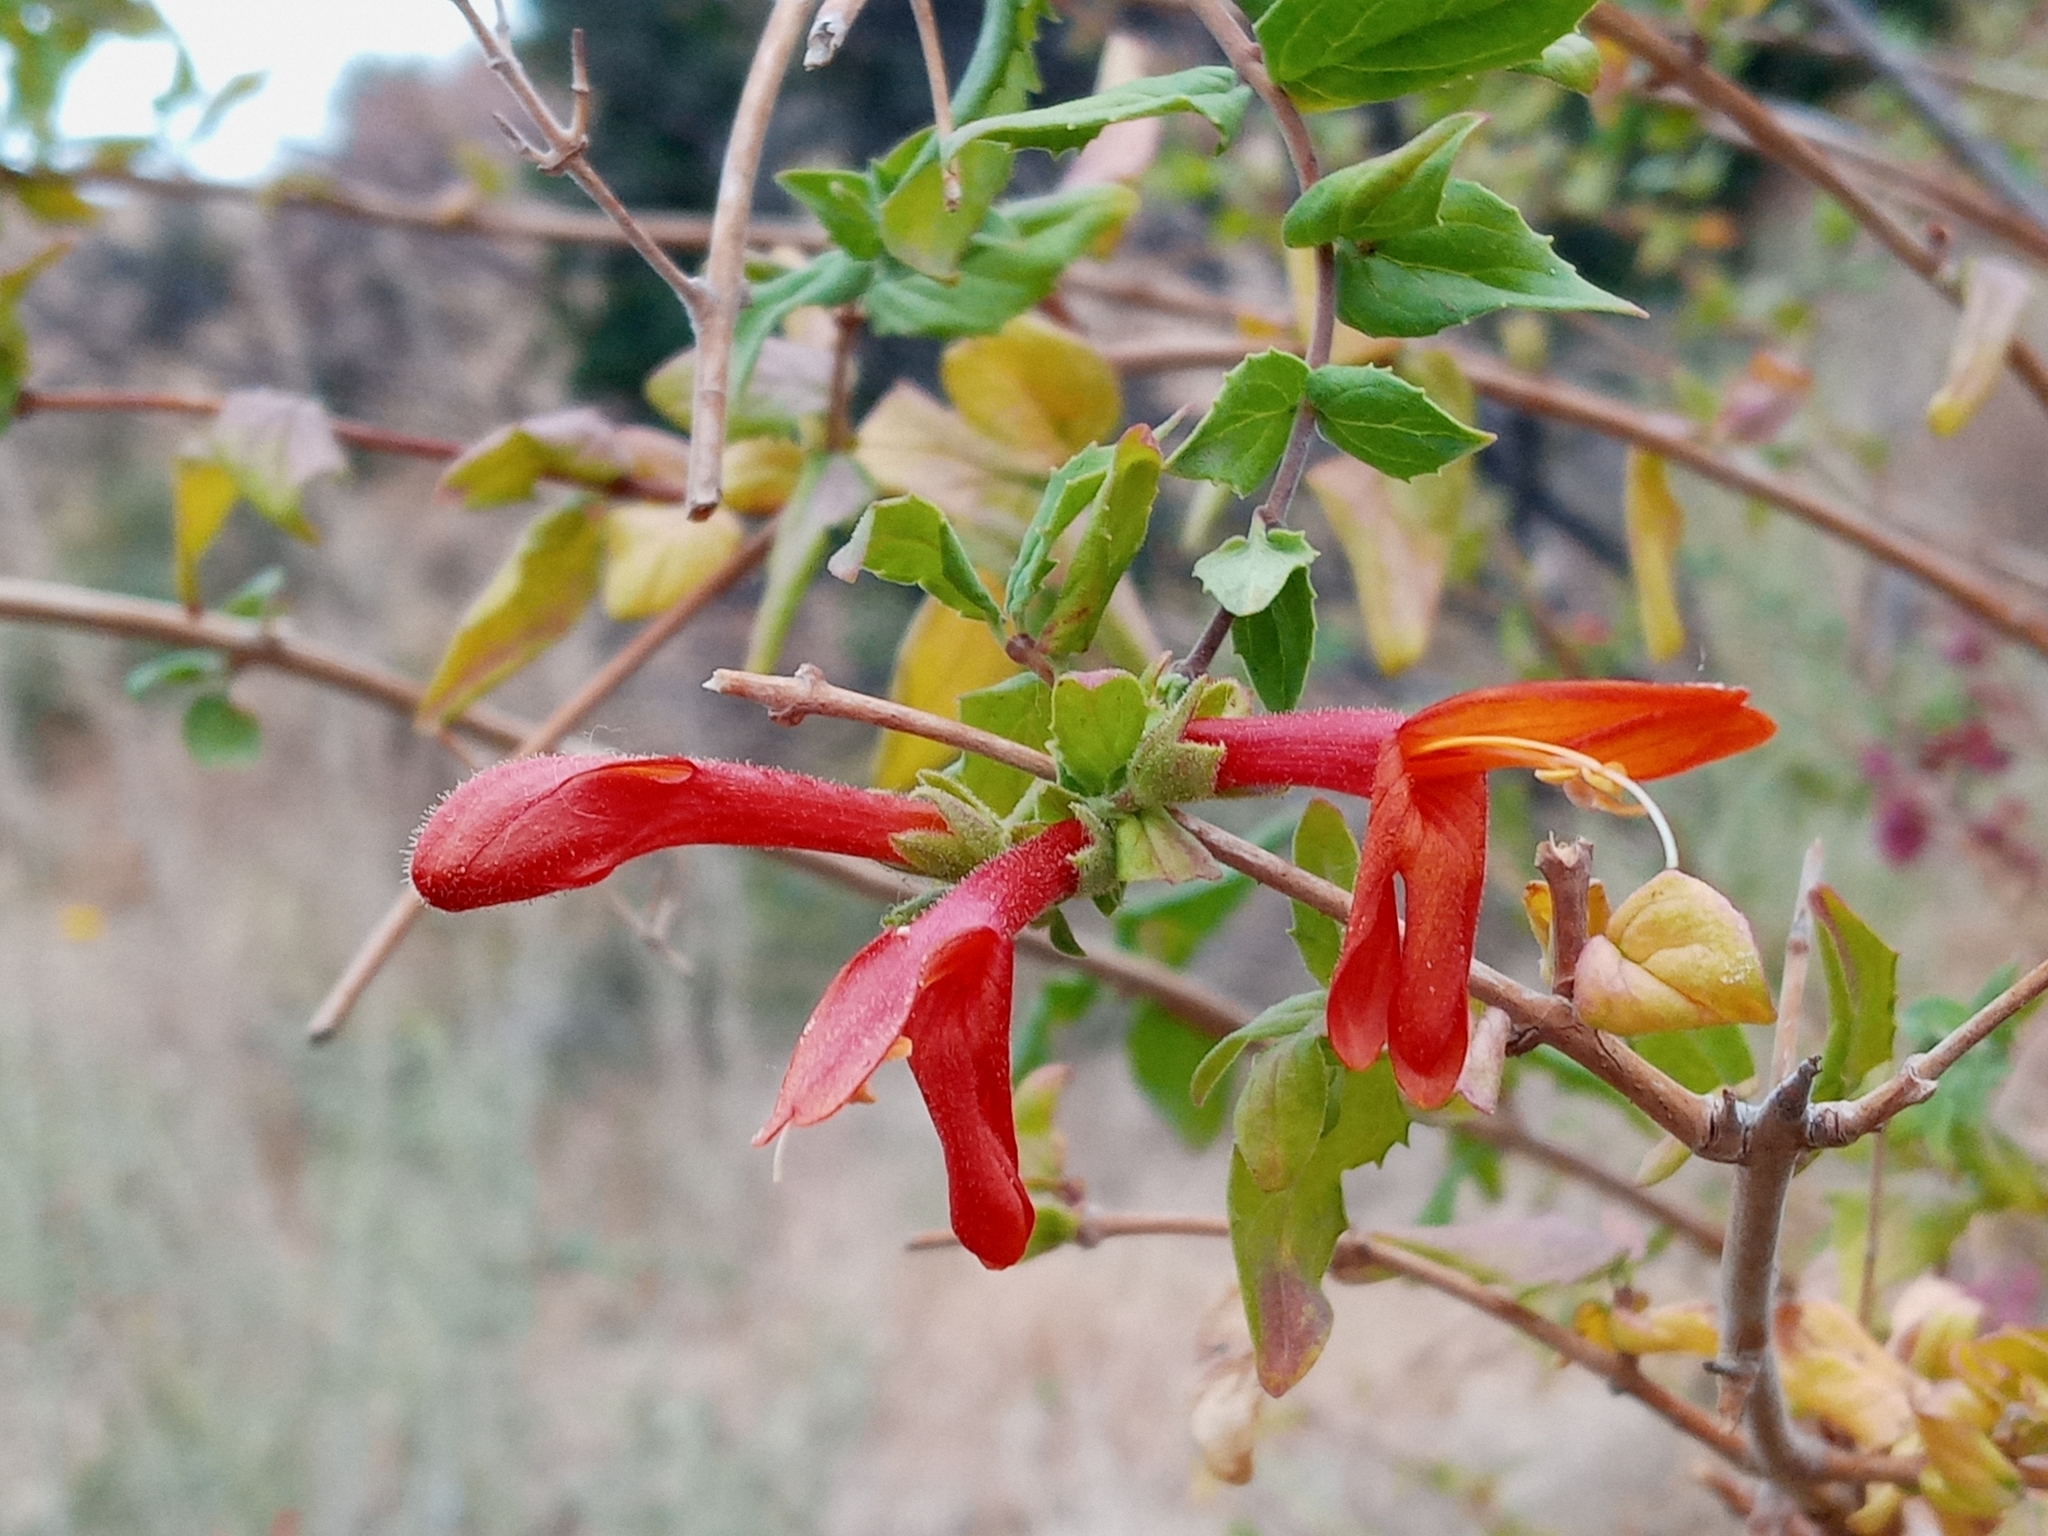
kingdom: Plantae
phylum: Tracheophyta
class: Magnoliopsida
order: Lamiales
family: Plantaginaceae
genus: Keckiella
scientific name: Keckiella cordifolia
